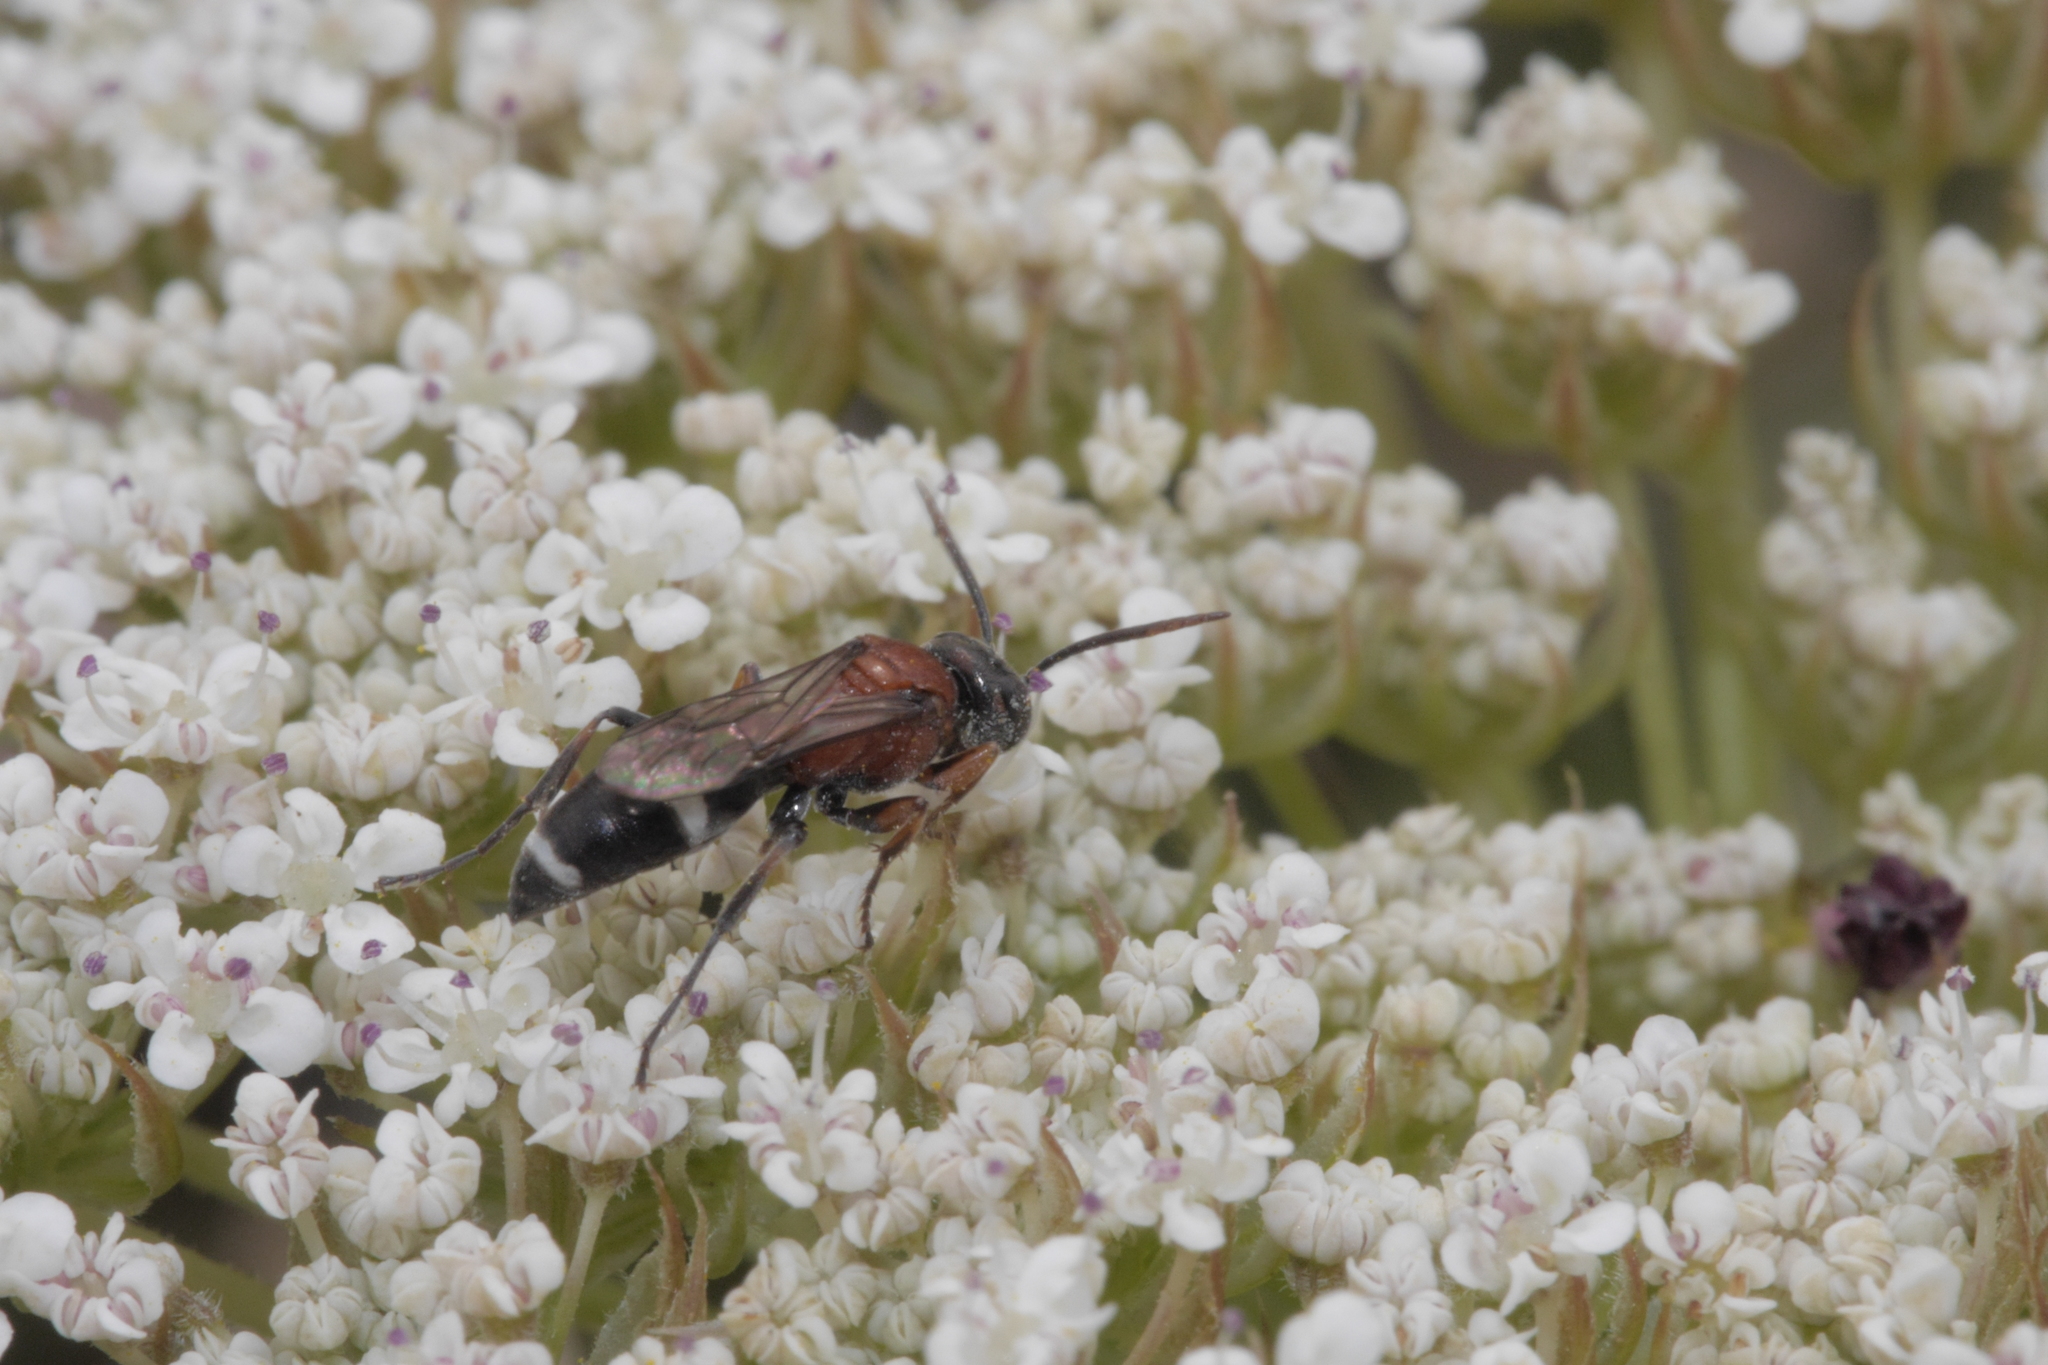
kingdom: Animalia
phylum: Arthropoda
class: Insecta
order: Hymenoptera
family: Crabronidae
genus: Harpactus
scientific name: Harpactus laevis
